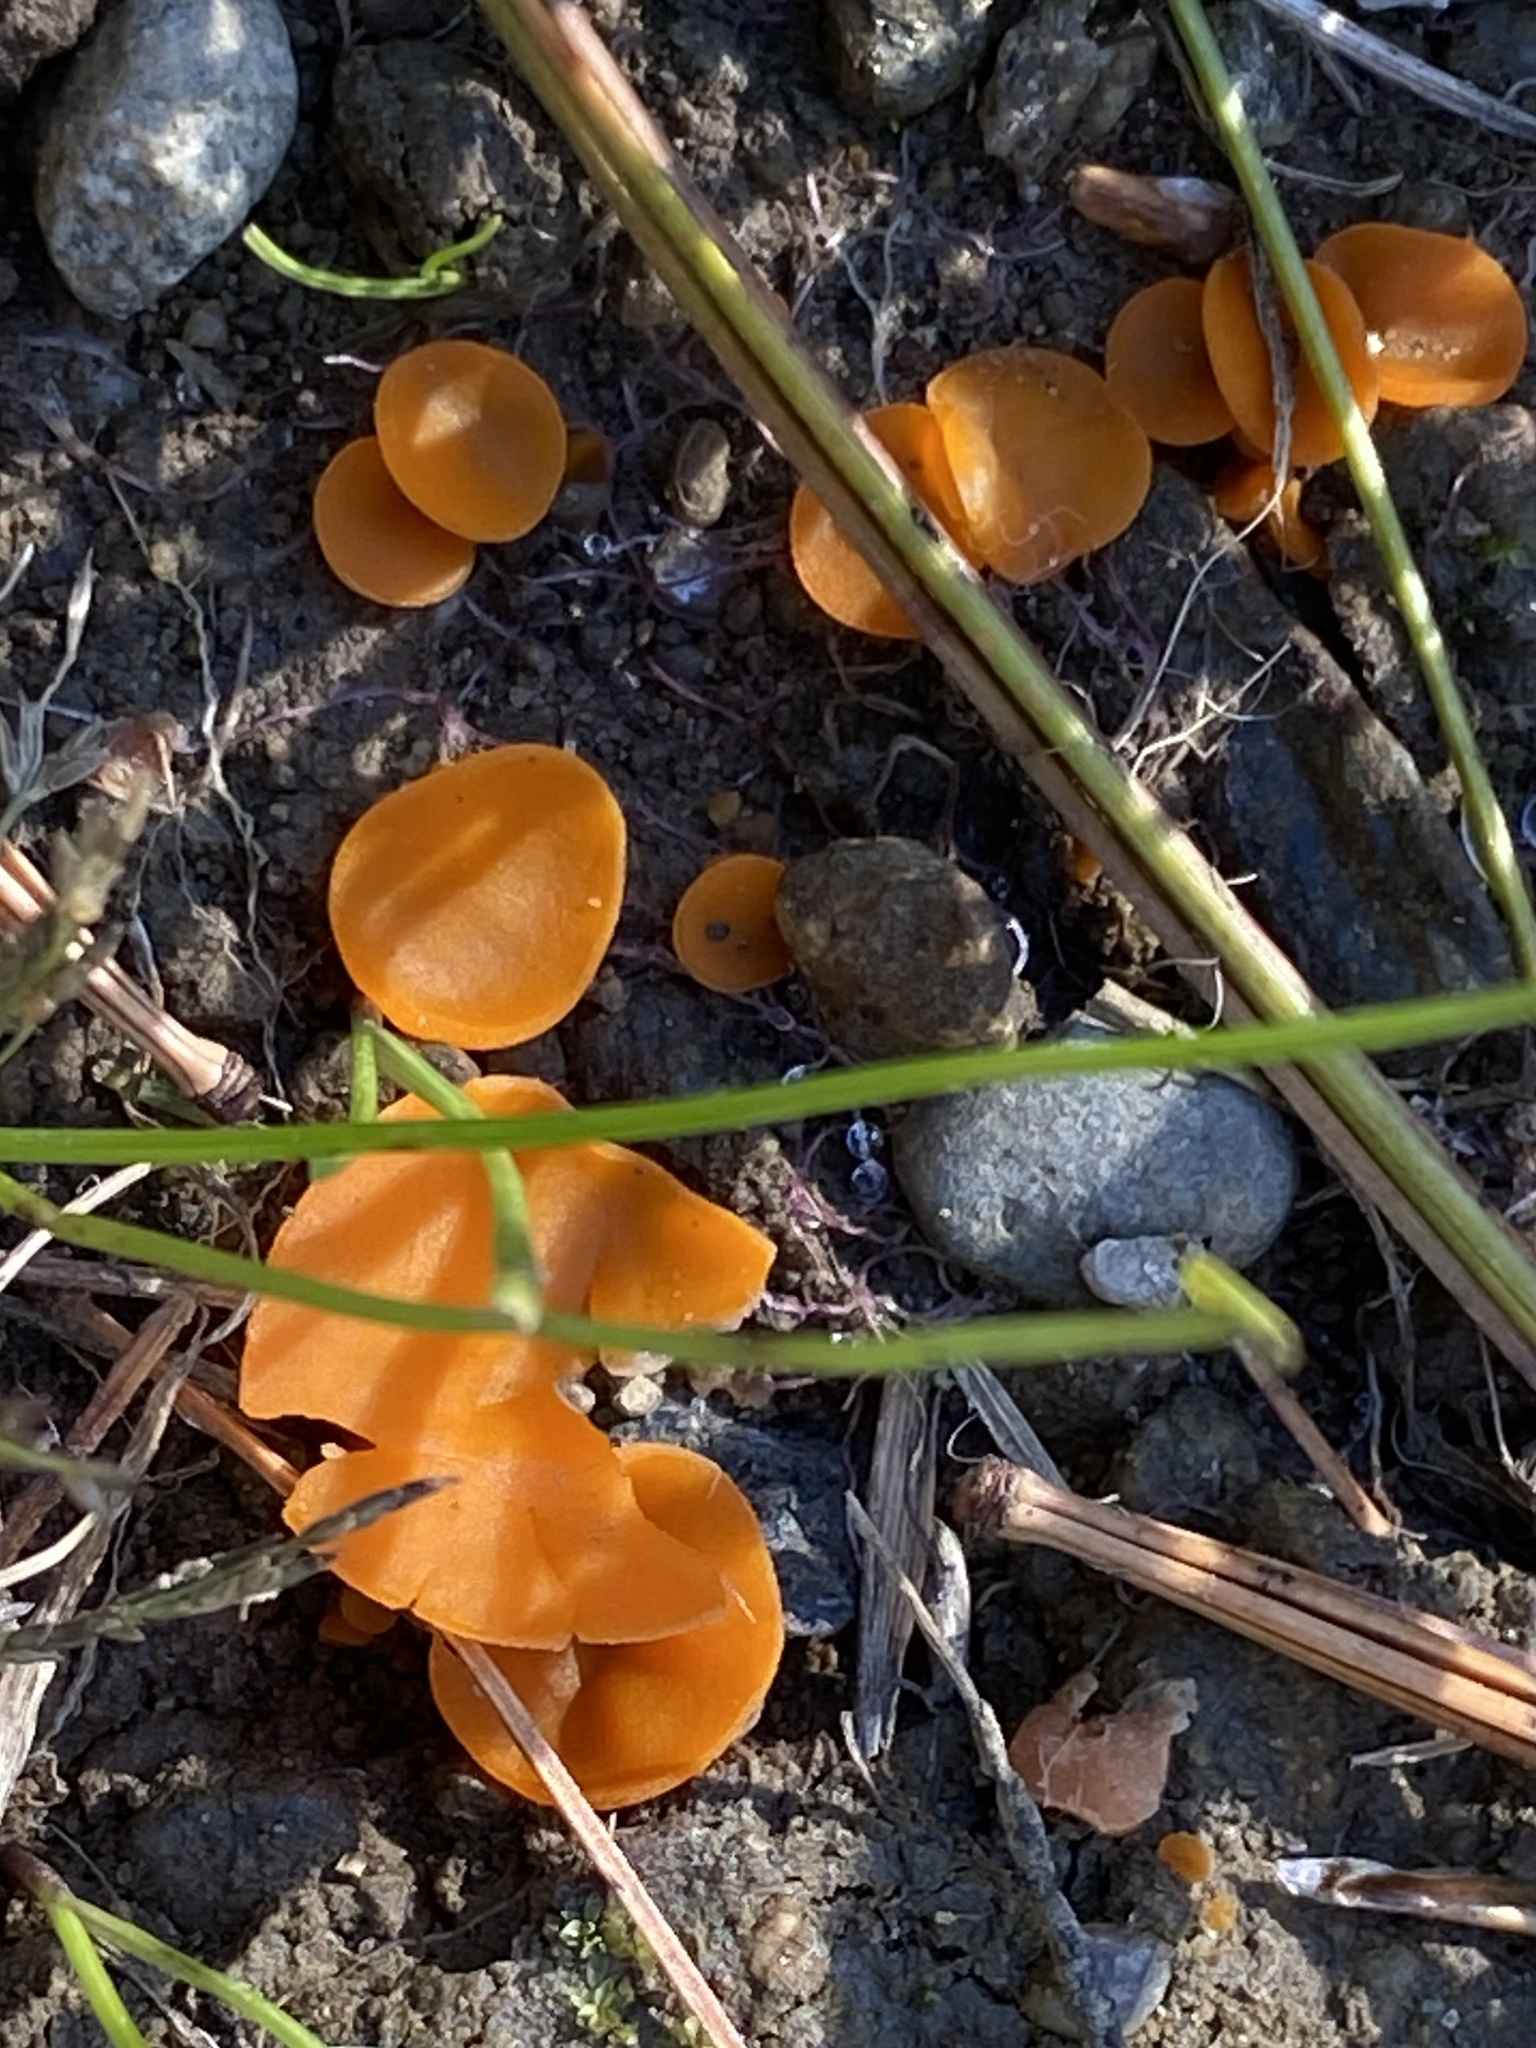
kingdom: Fungi
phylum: Ascomycota
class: Pezizomycetes
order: Pezizales
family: Pyronemataceae
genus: Aleuria
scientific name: Aleuria aurantia
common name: Orange peel fungus
